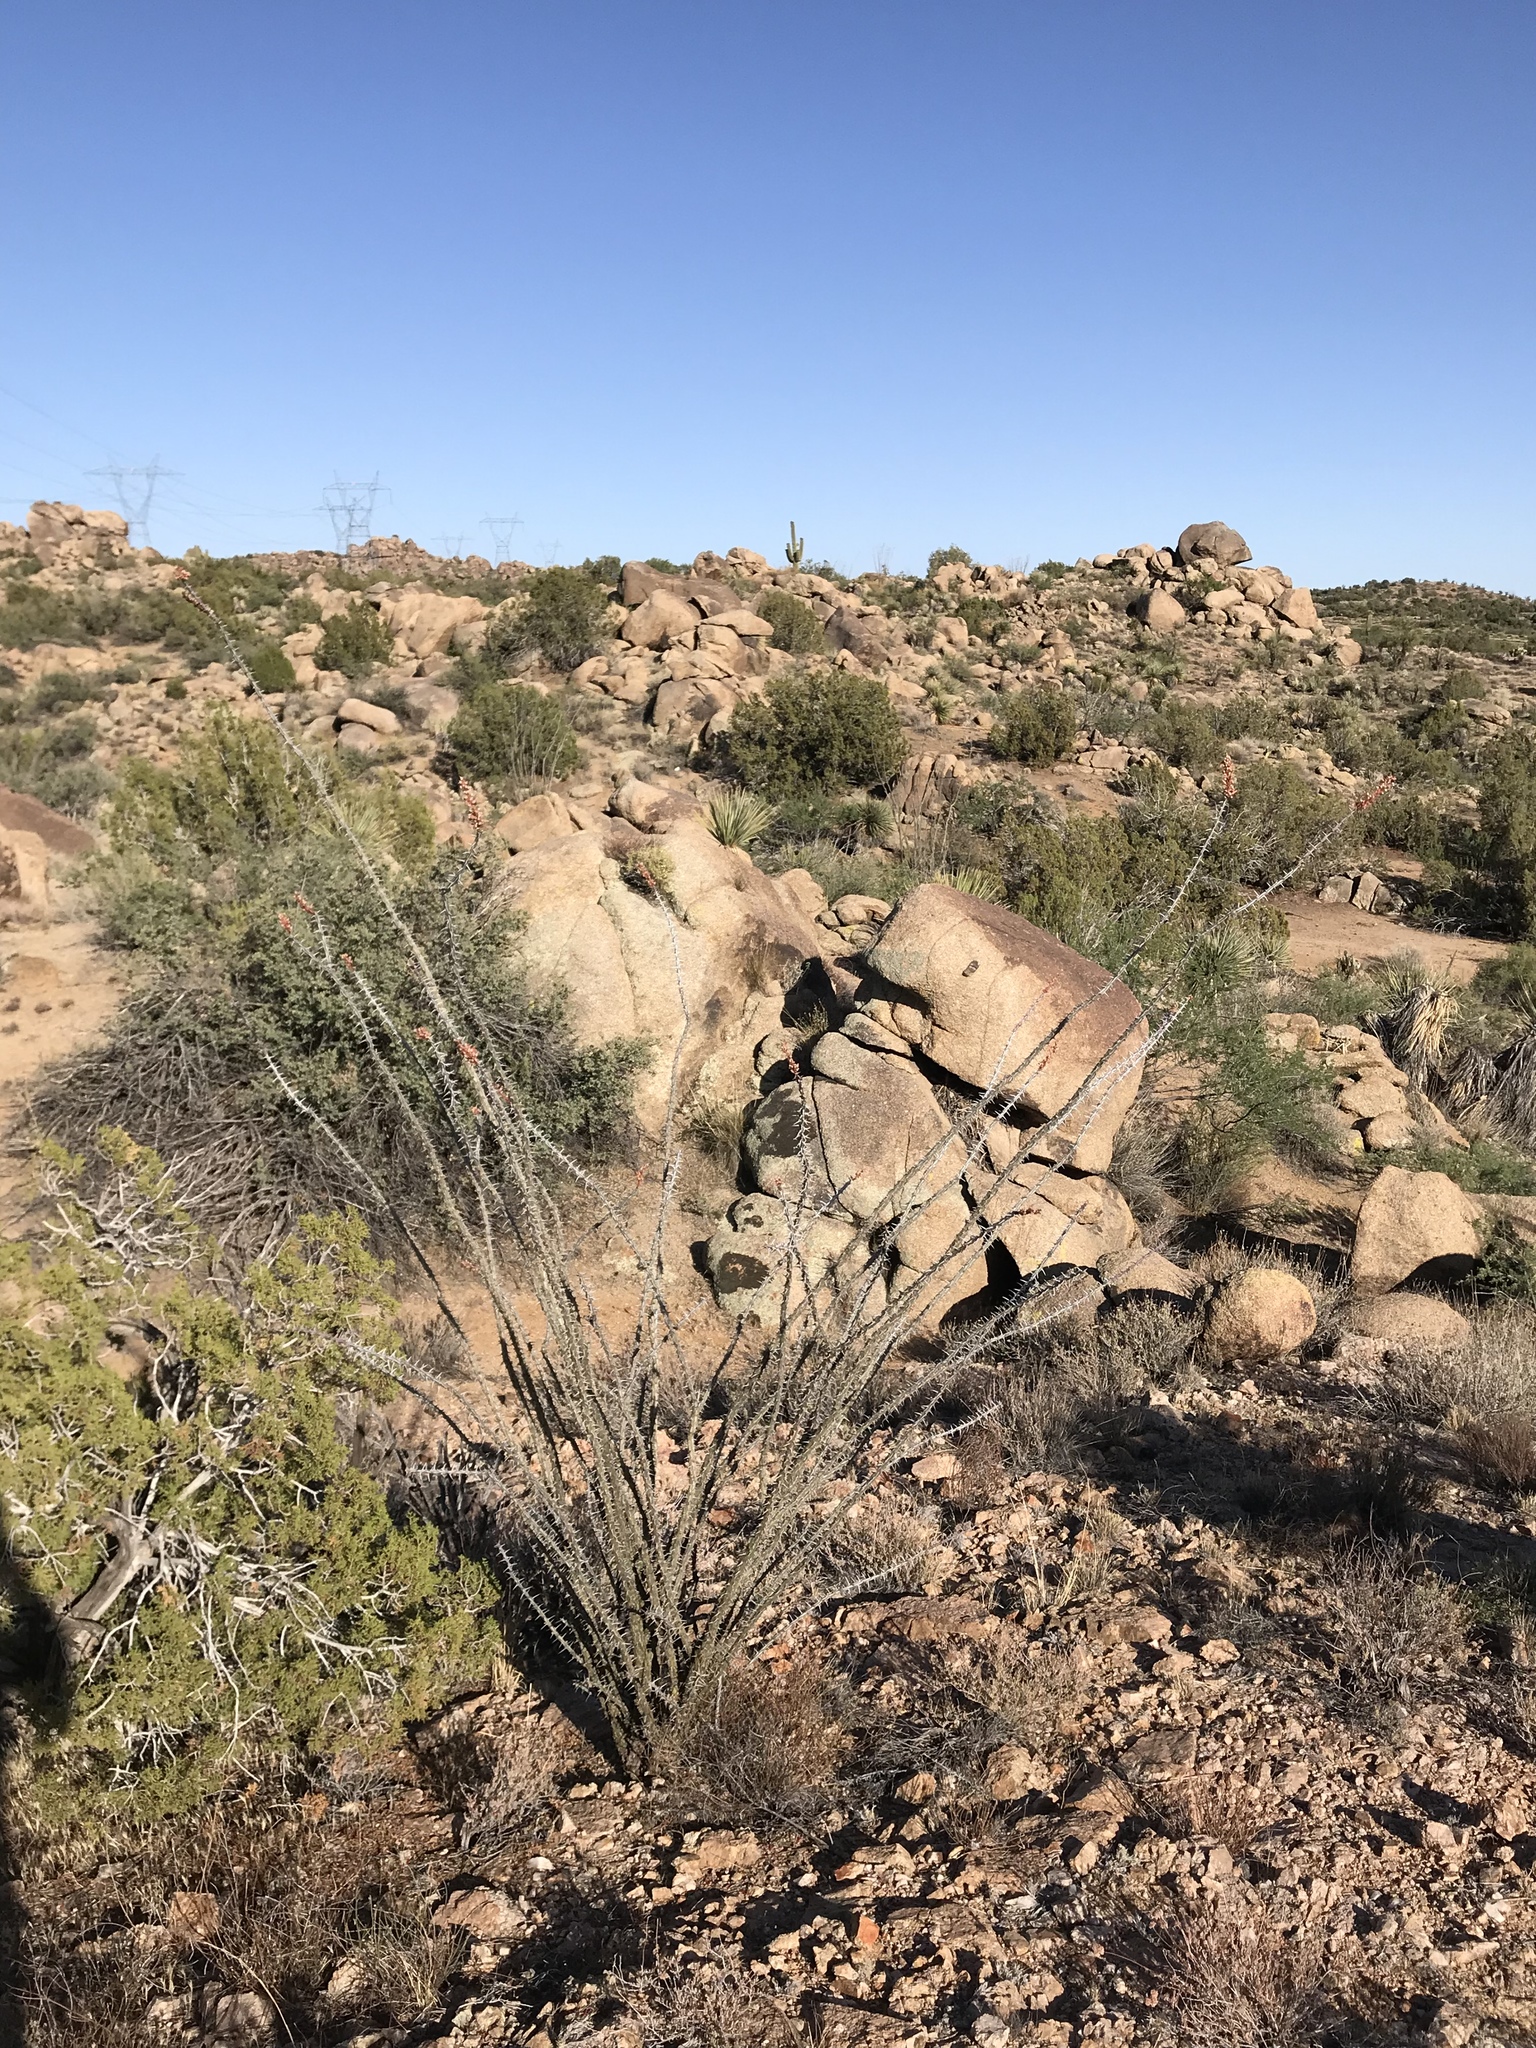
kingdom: Plantae
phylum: Tracheophyta
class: Magnoliopsida
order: Ericales
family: Fouquieriaceae
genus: Fouquieria
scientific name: Fouquieria splendens
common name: Vine-cactus
